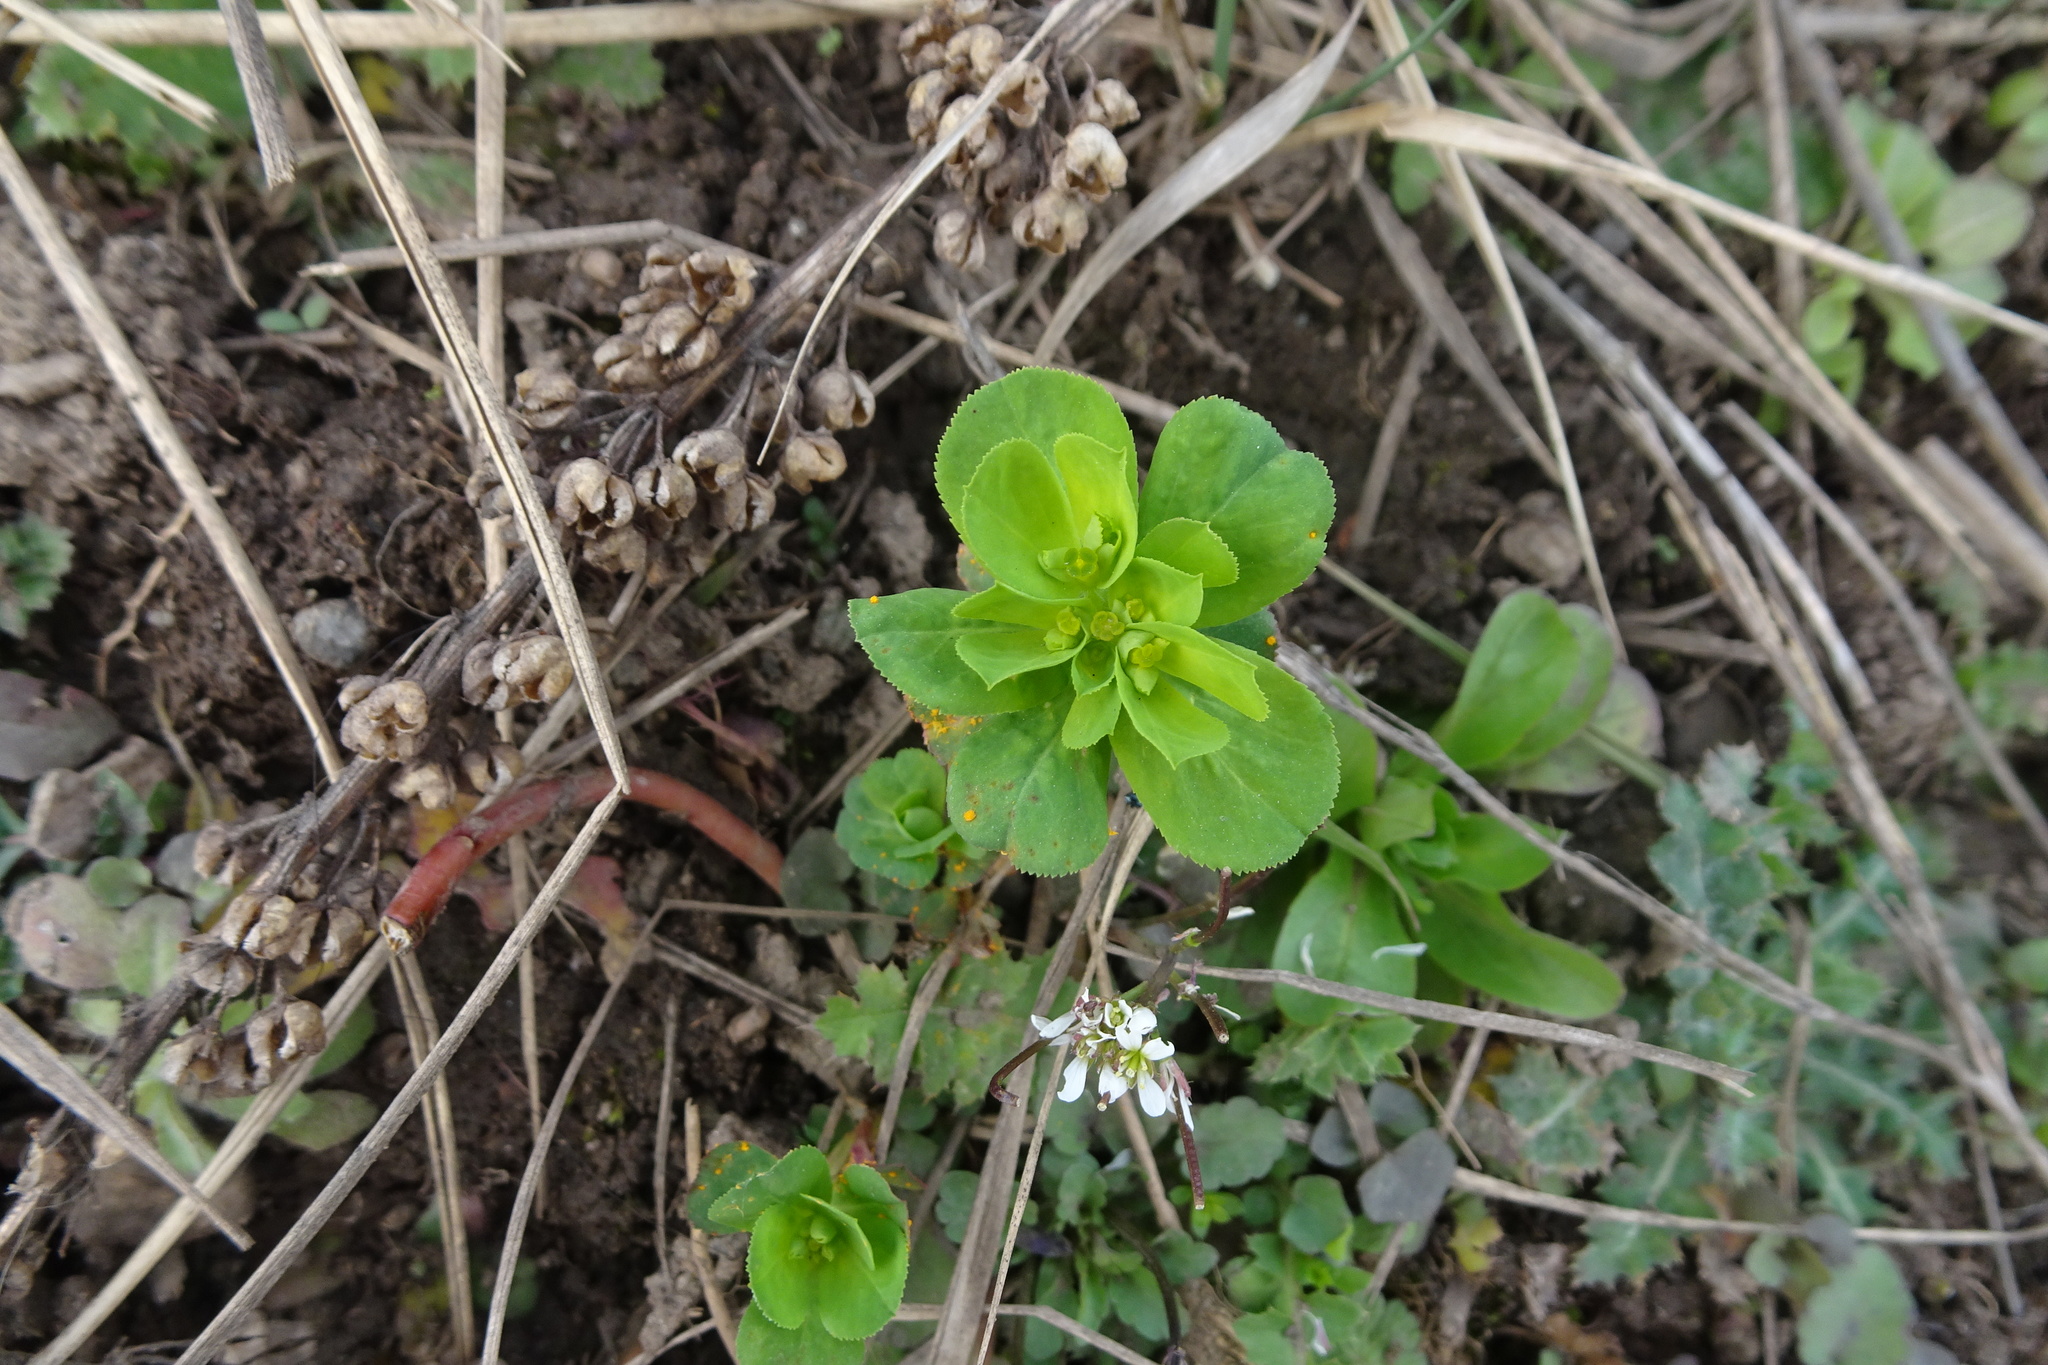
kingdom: Plantae
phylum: Tracheophyta
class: Magnoliopsida
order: Malpighiales
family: Euphorbiaceae
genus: Euphorbia
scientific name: Euphorbia helioscopia
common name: Sun spurge
